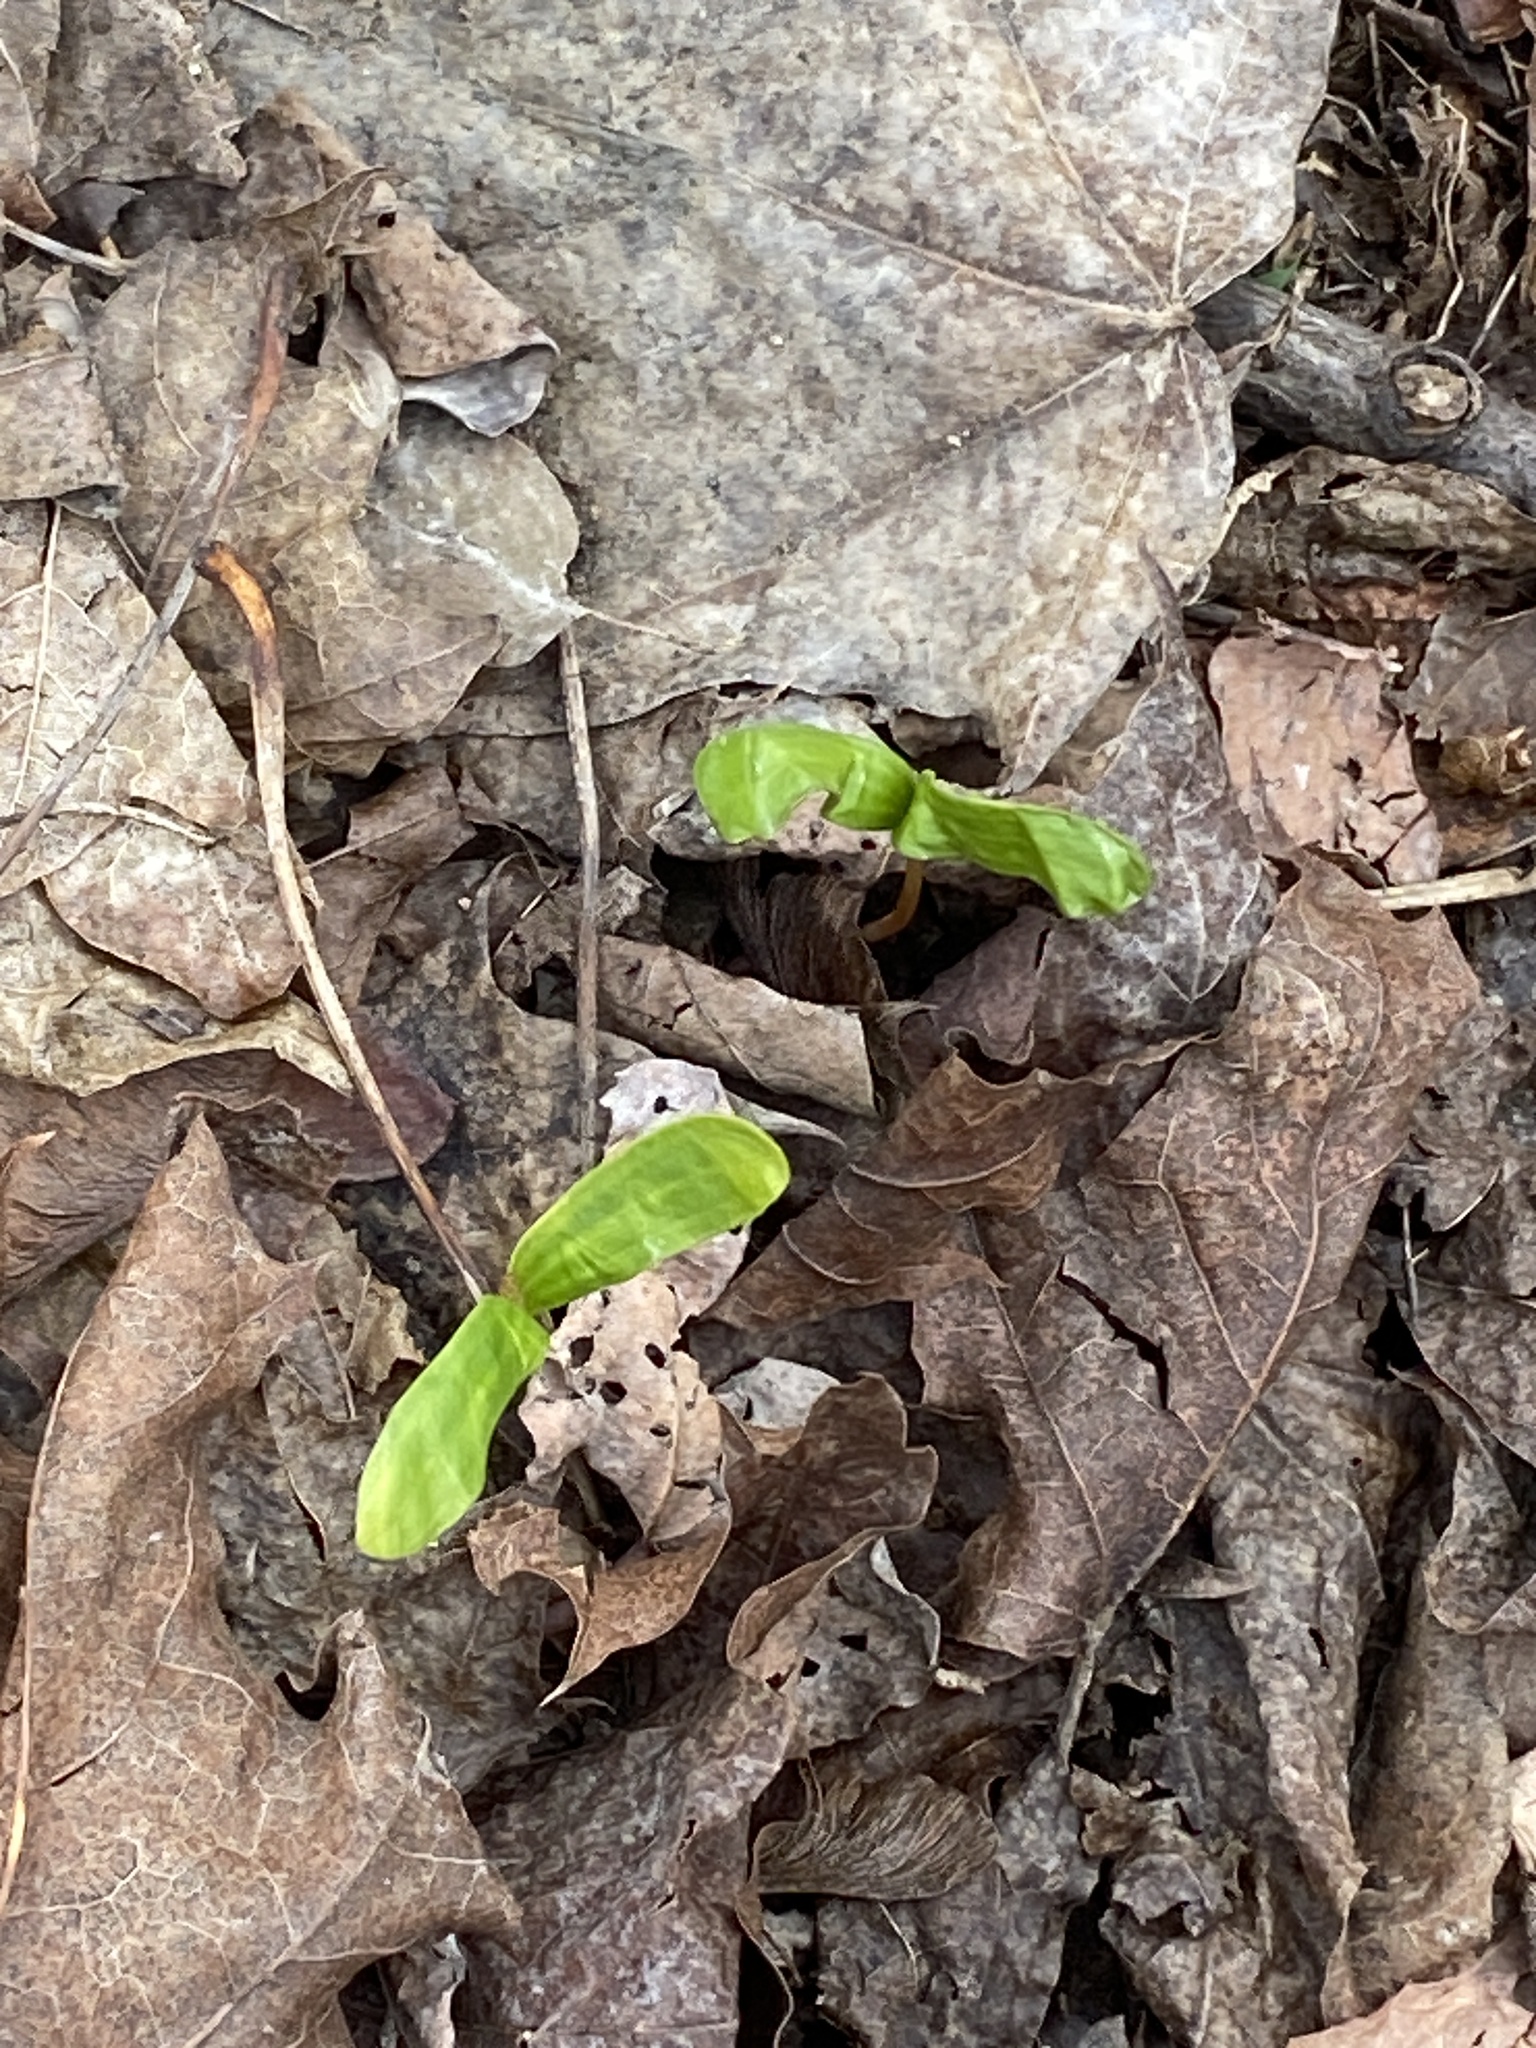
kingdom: Plantae
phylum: Tracheophyta
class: Magnoliopsida
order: Sapindales
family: Sapindaceae
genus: Acer
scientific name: Acer platanoides
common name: Norway maple
